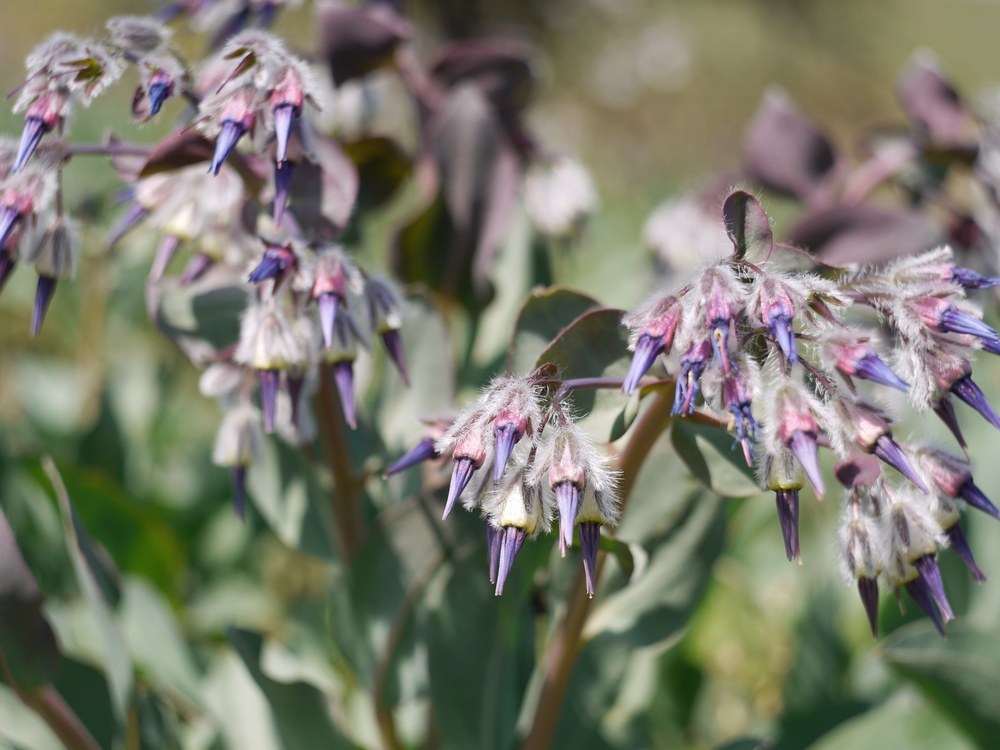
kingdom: Plantae
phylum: Tracheophyta
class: Magnoliopsida
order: Boraginales
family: Boraginaceae
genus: Rindera
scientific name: Rindera tetraspis
